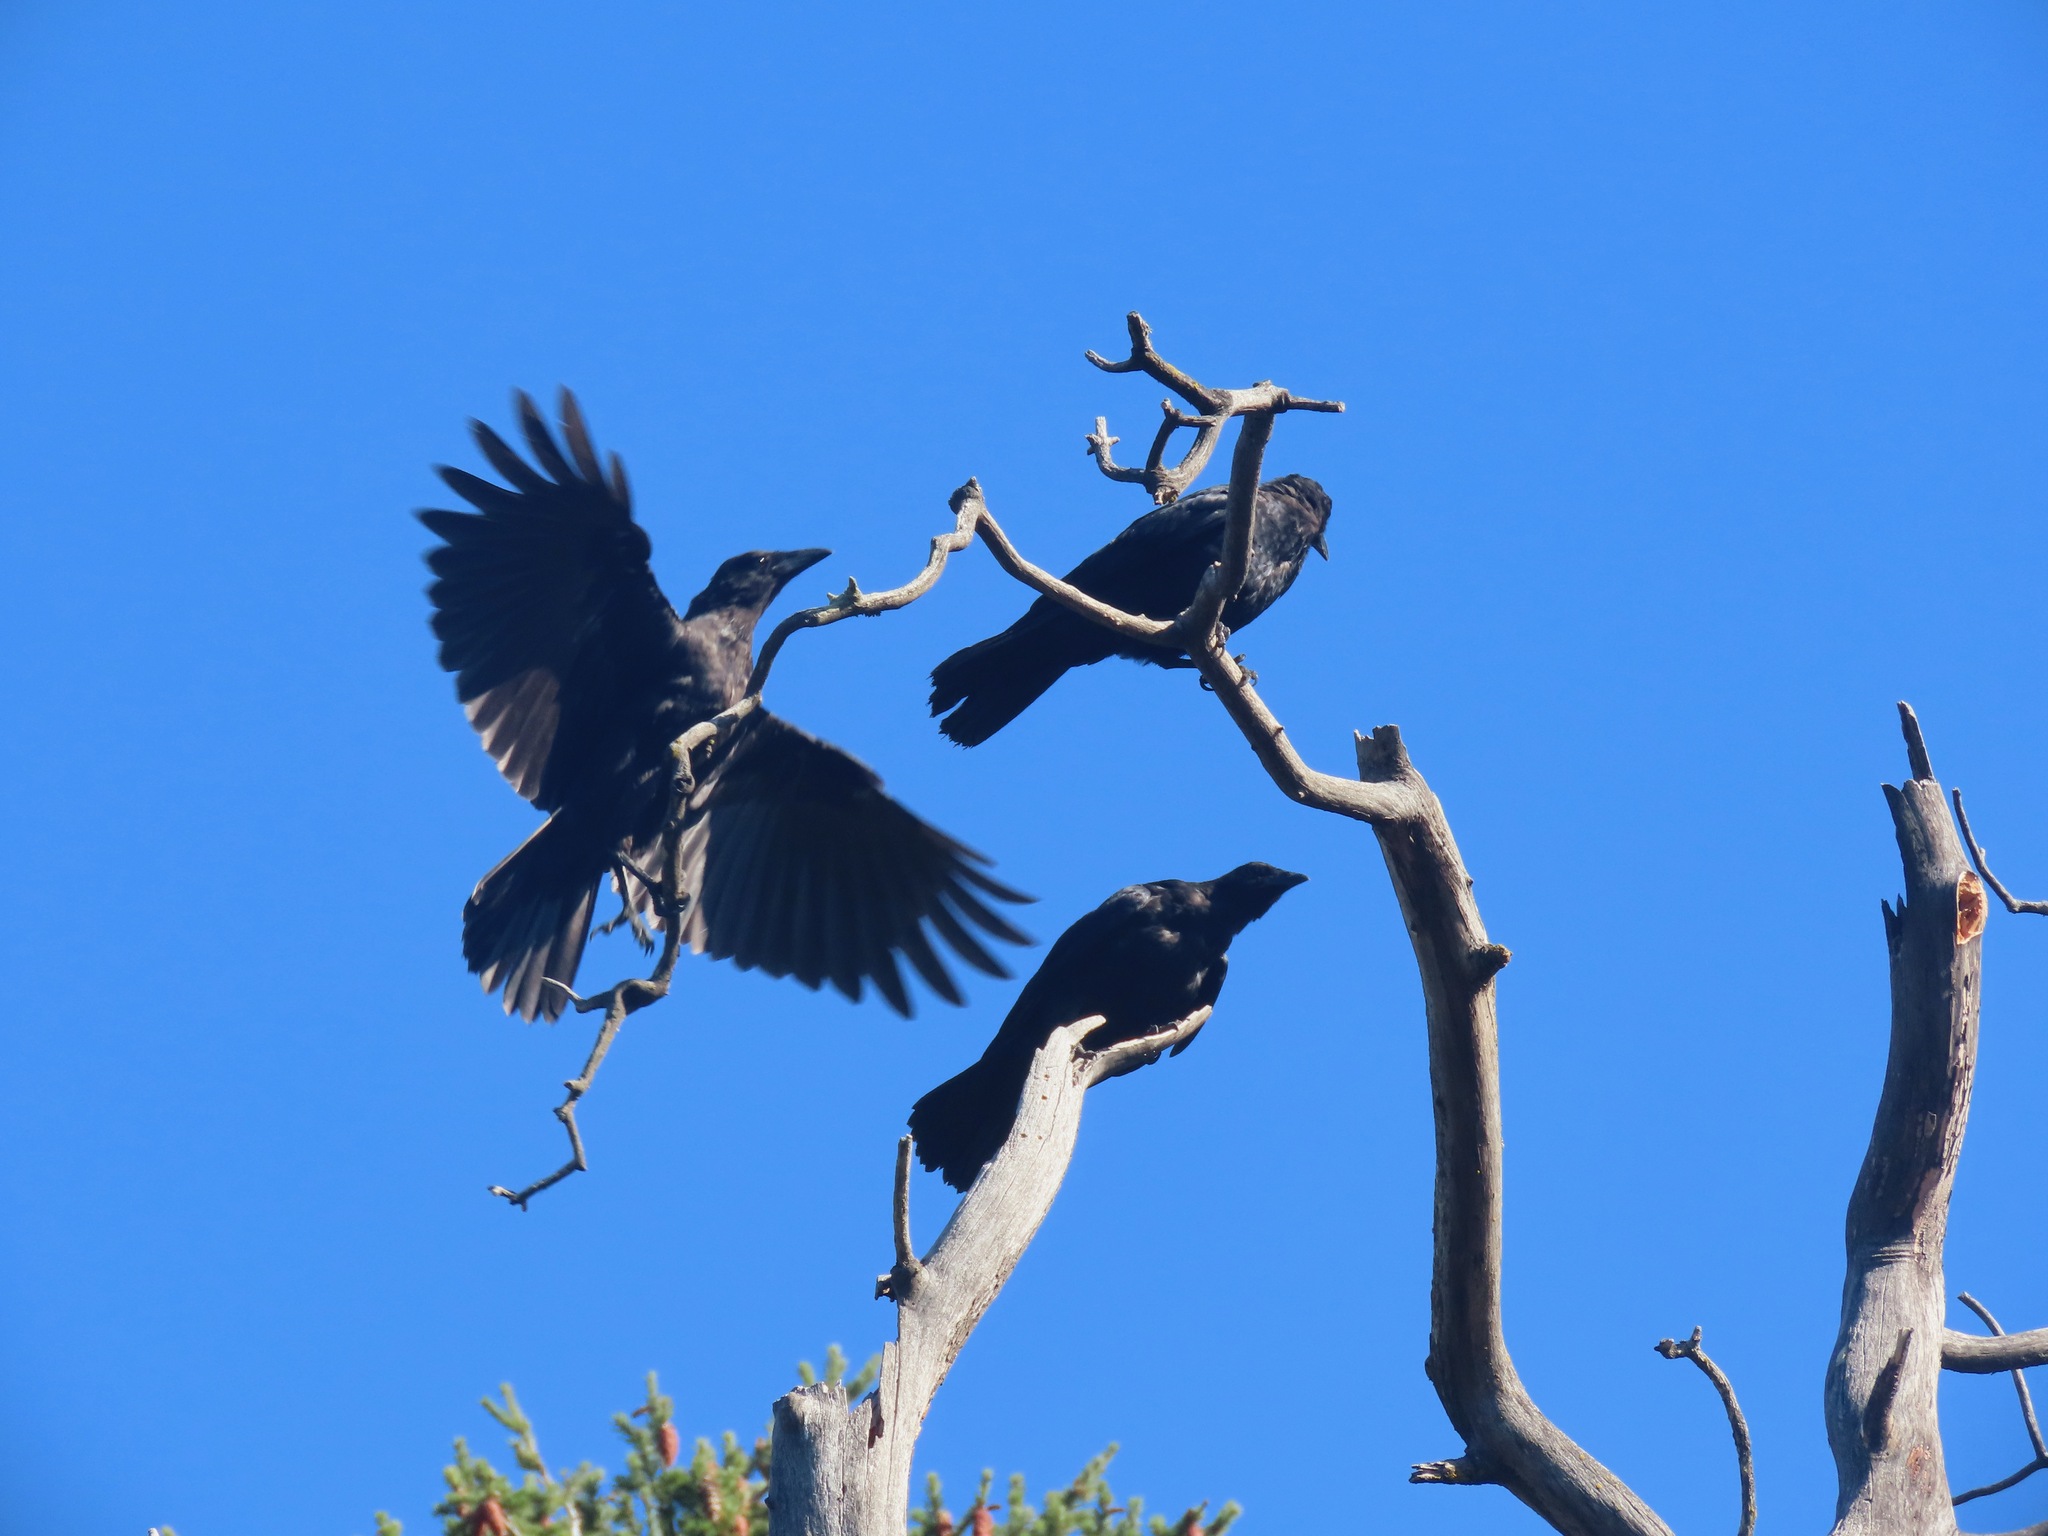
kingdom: Animalia
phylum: Chordata
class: Aves
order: Passeriformes
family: Corvidae
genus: Corvus
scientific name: Corvus brachyrhynchos
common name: American crow
